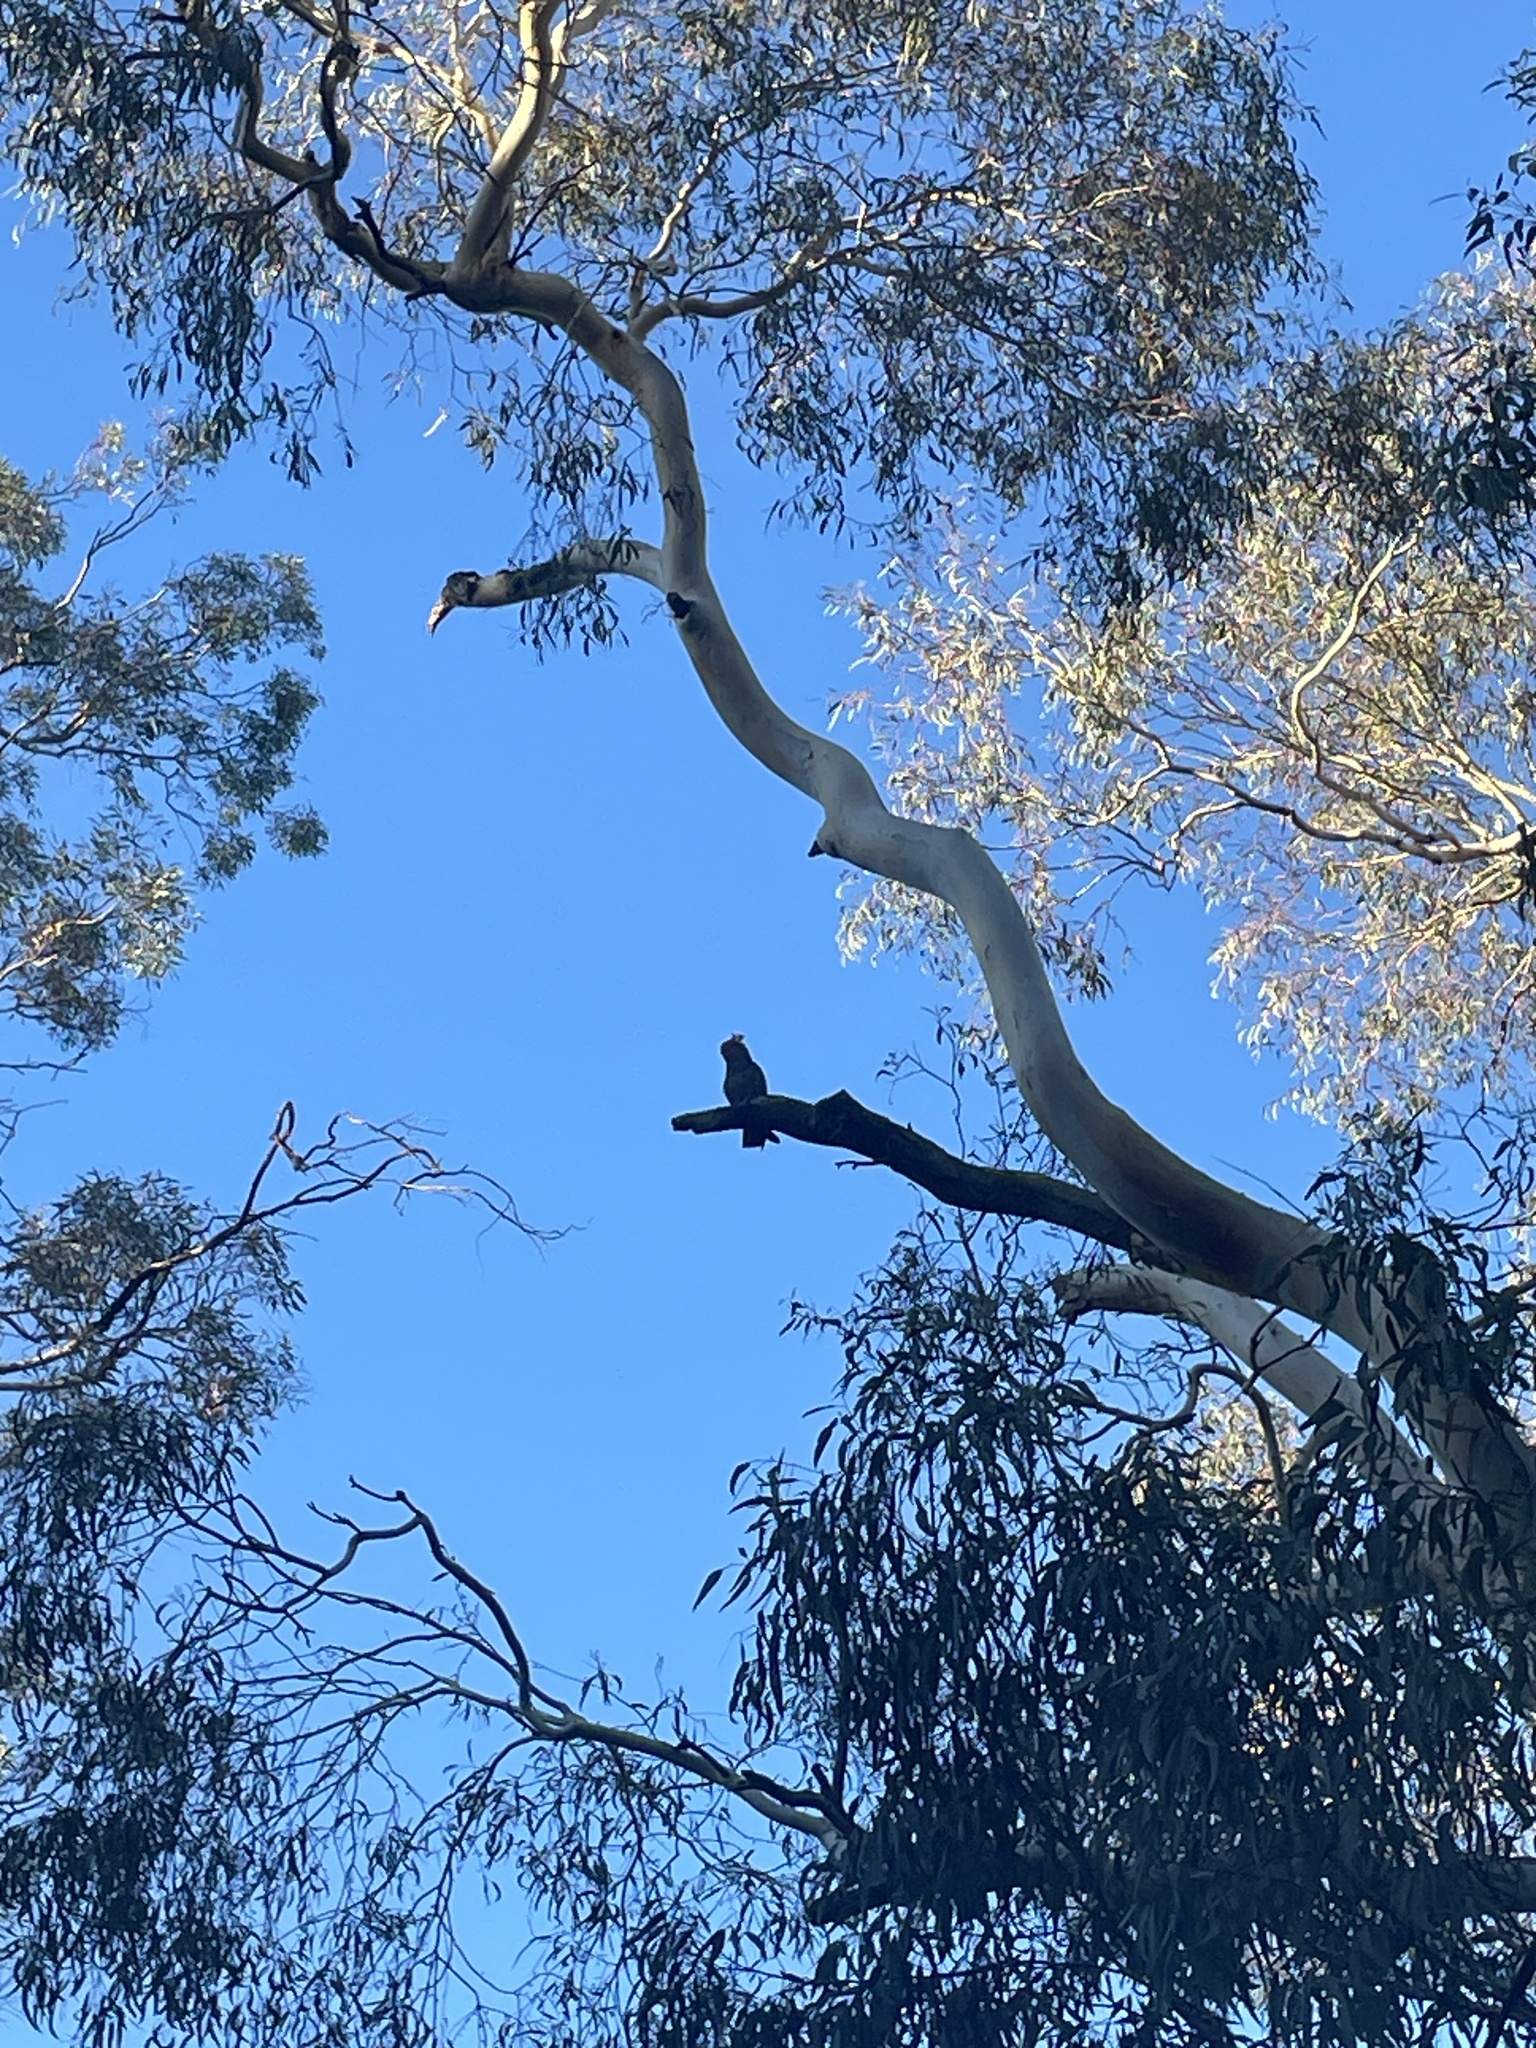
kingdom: Animalia
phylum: Chordata
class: Aves
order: Psittaciformes
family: Psittacidae
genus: Callocephalon
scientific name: Callocephalon fimbriatum
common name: Gang-gang cockatoo
